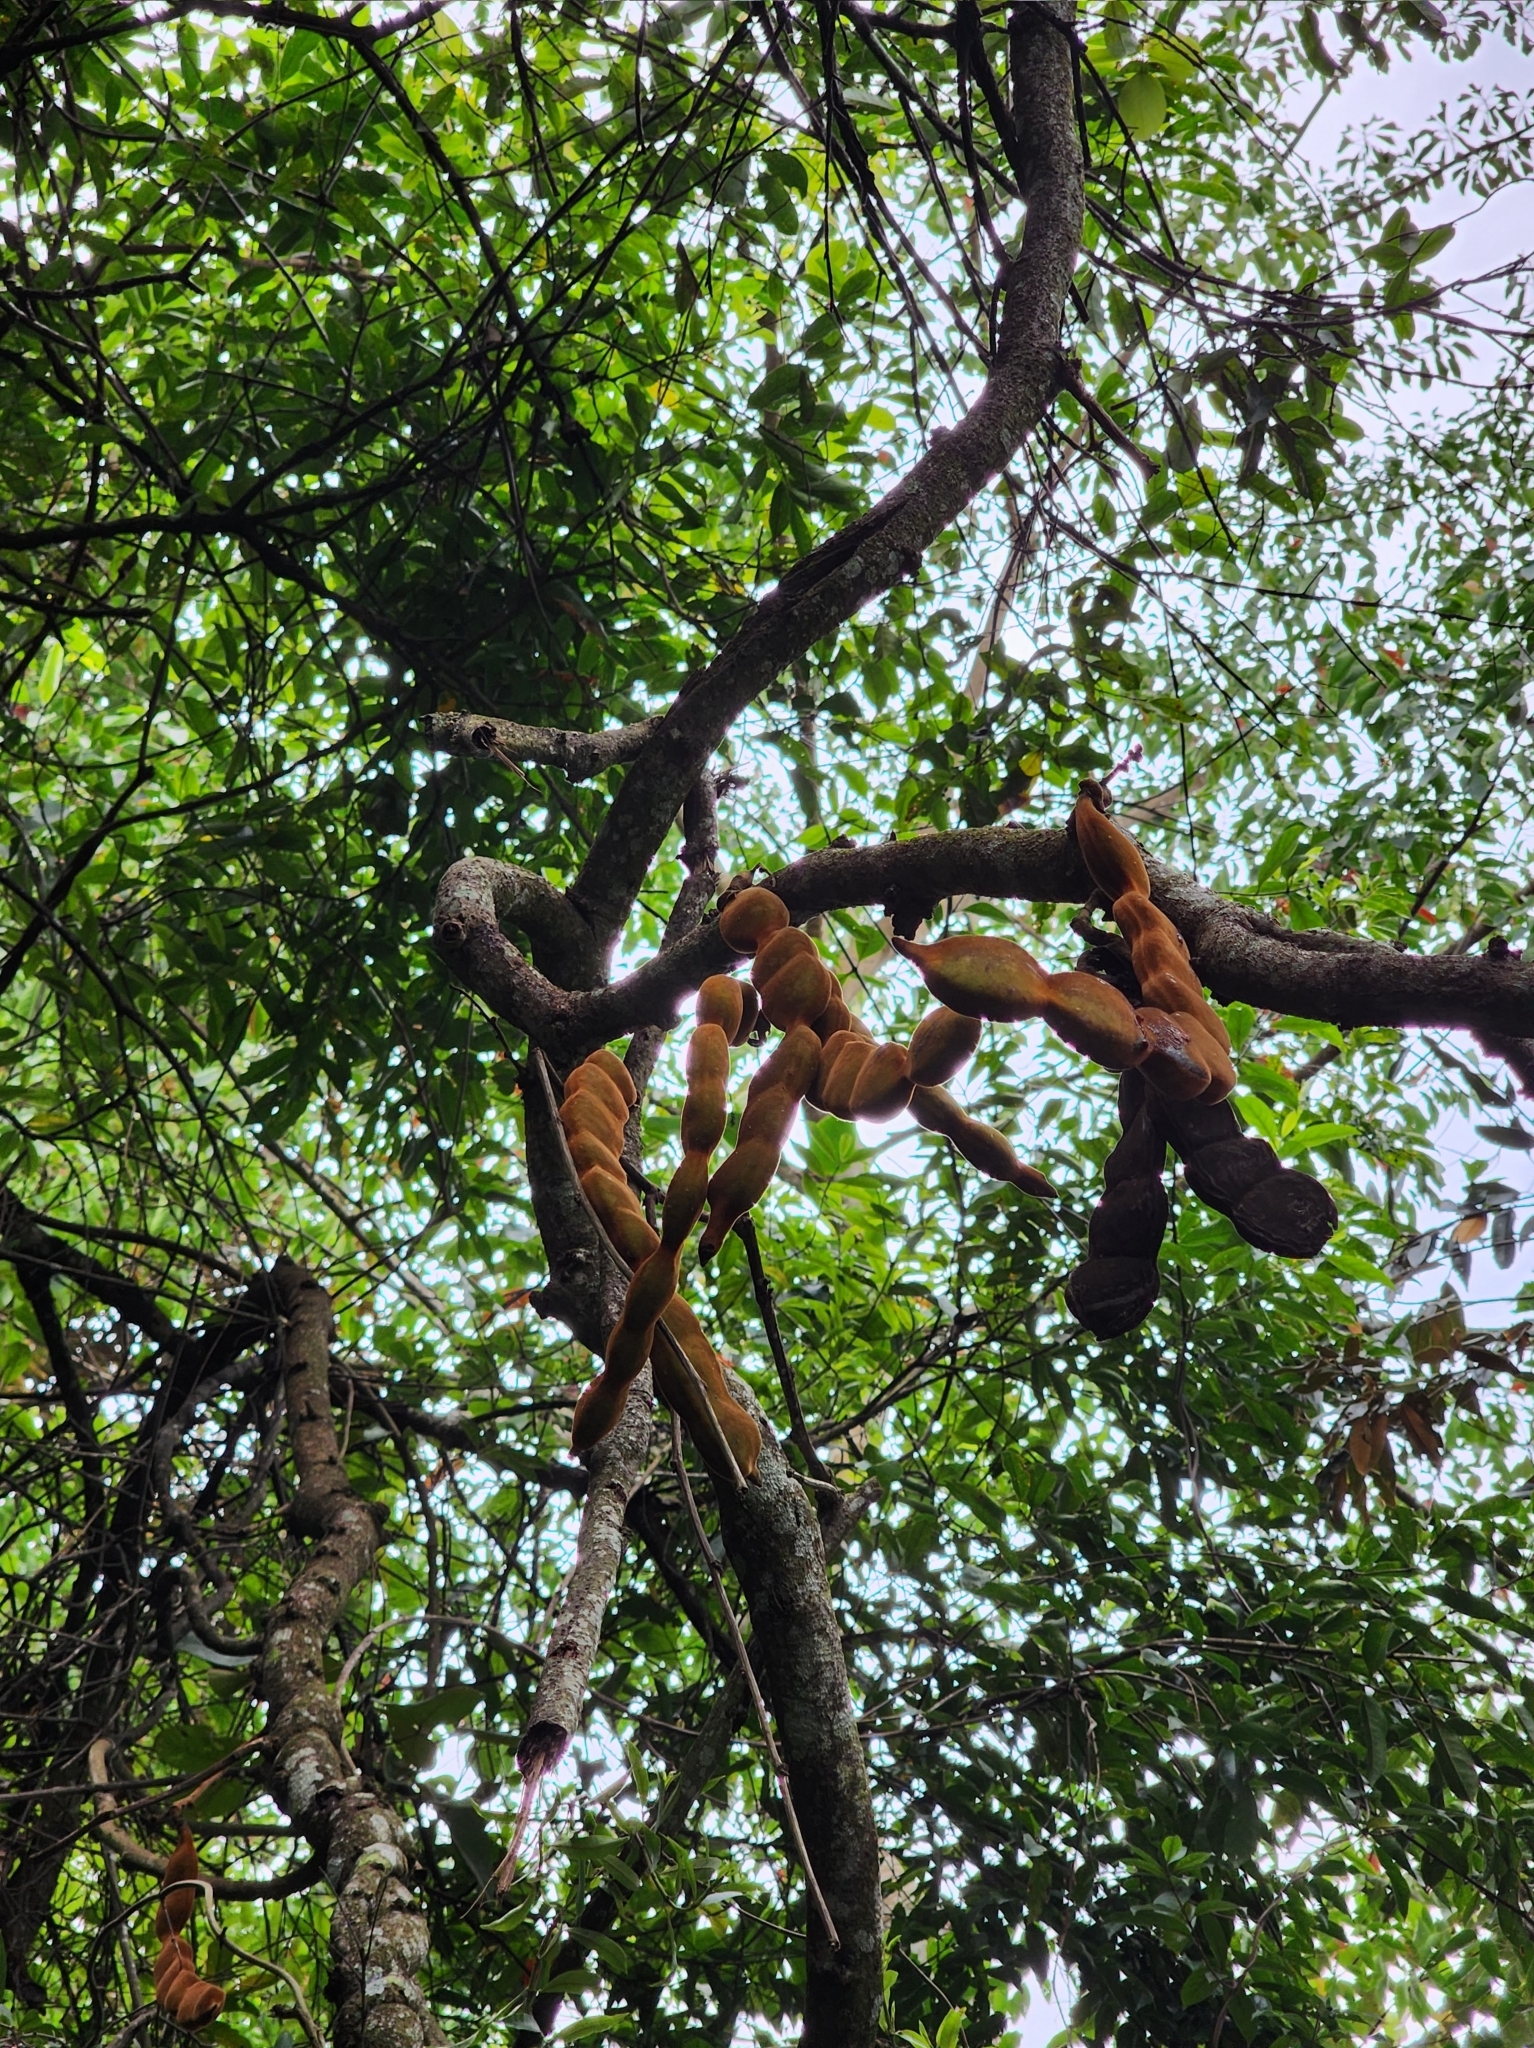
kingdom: Plantae
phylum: Tracheophyta
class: Magnoliopsida
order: Fabales
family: Fabaceae
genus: Mucuna
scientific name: Mucuna macrocarpa
